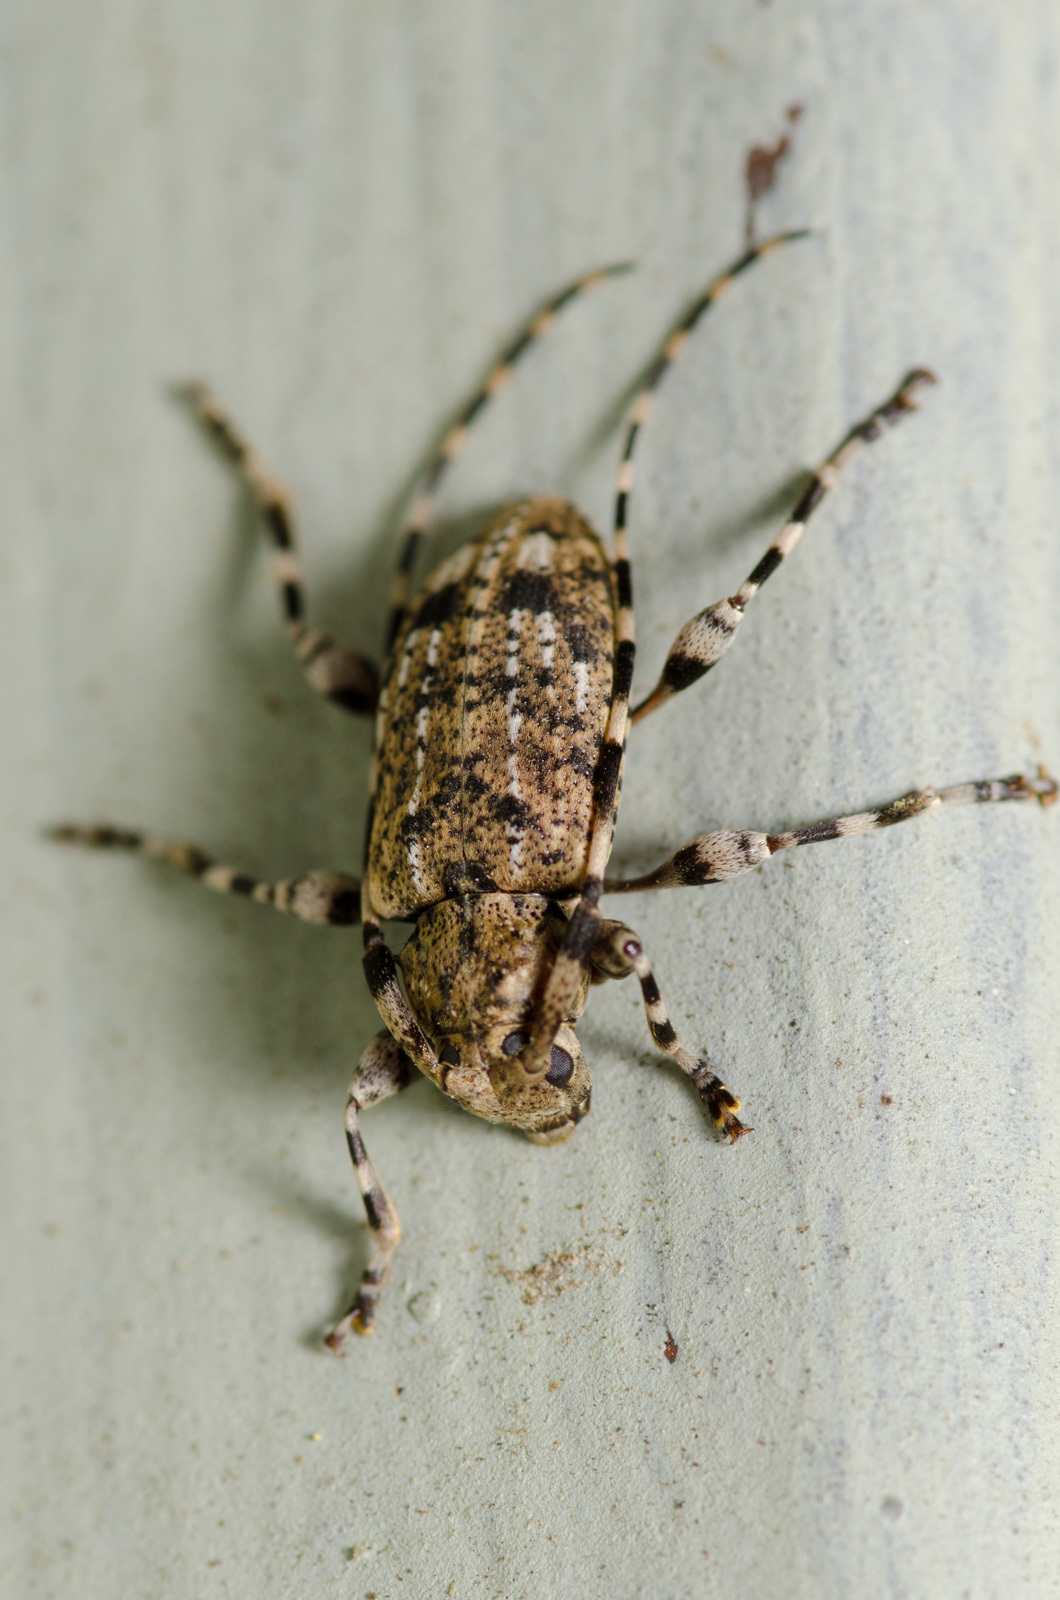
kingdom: Animalia
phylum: Arthropoda
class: Insecta
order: Coleoptera
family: Cerambycidae
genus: Astyleiopus
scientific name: Astyleiopus variegatus
